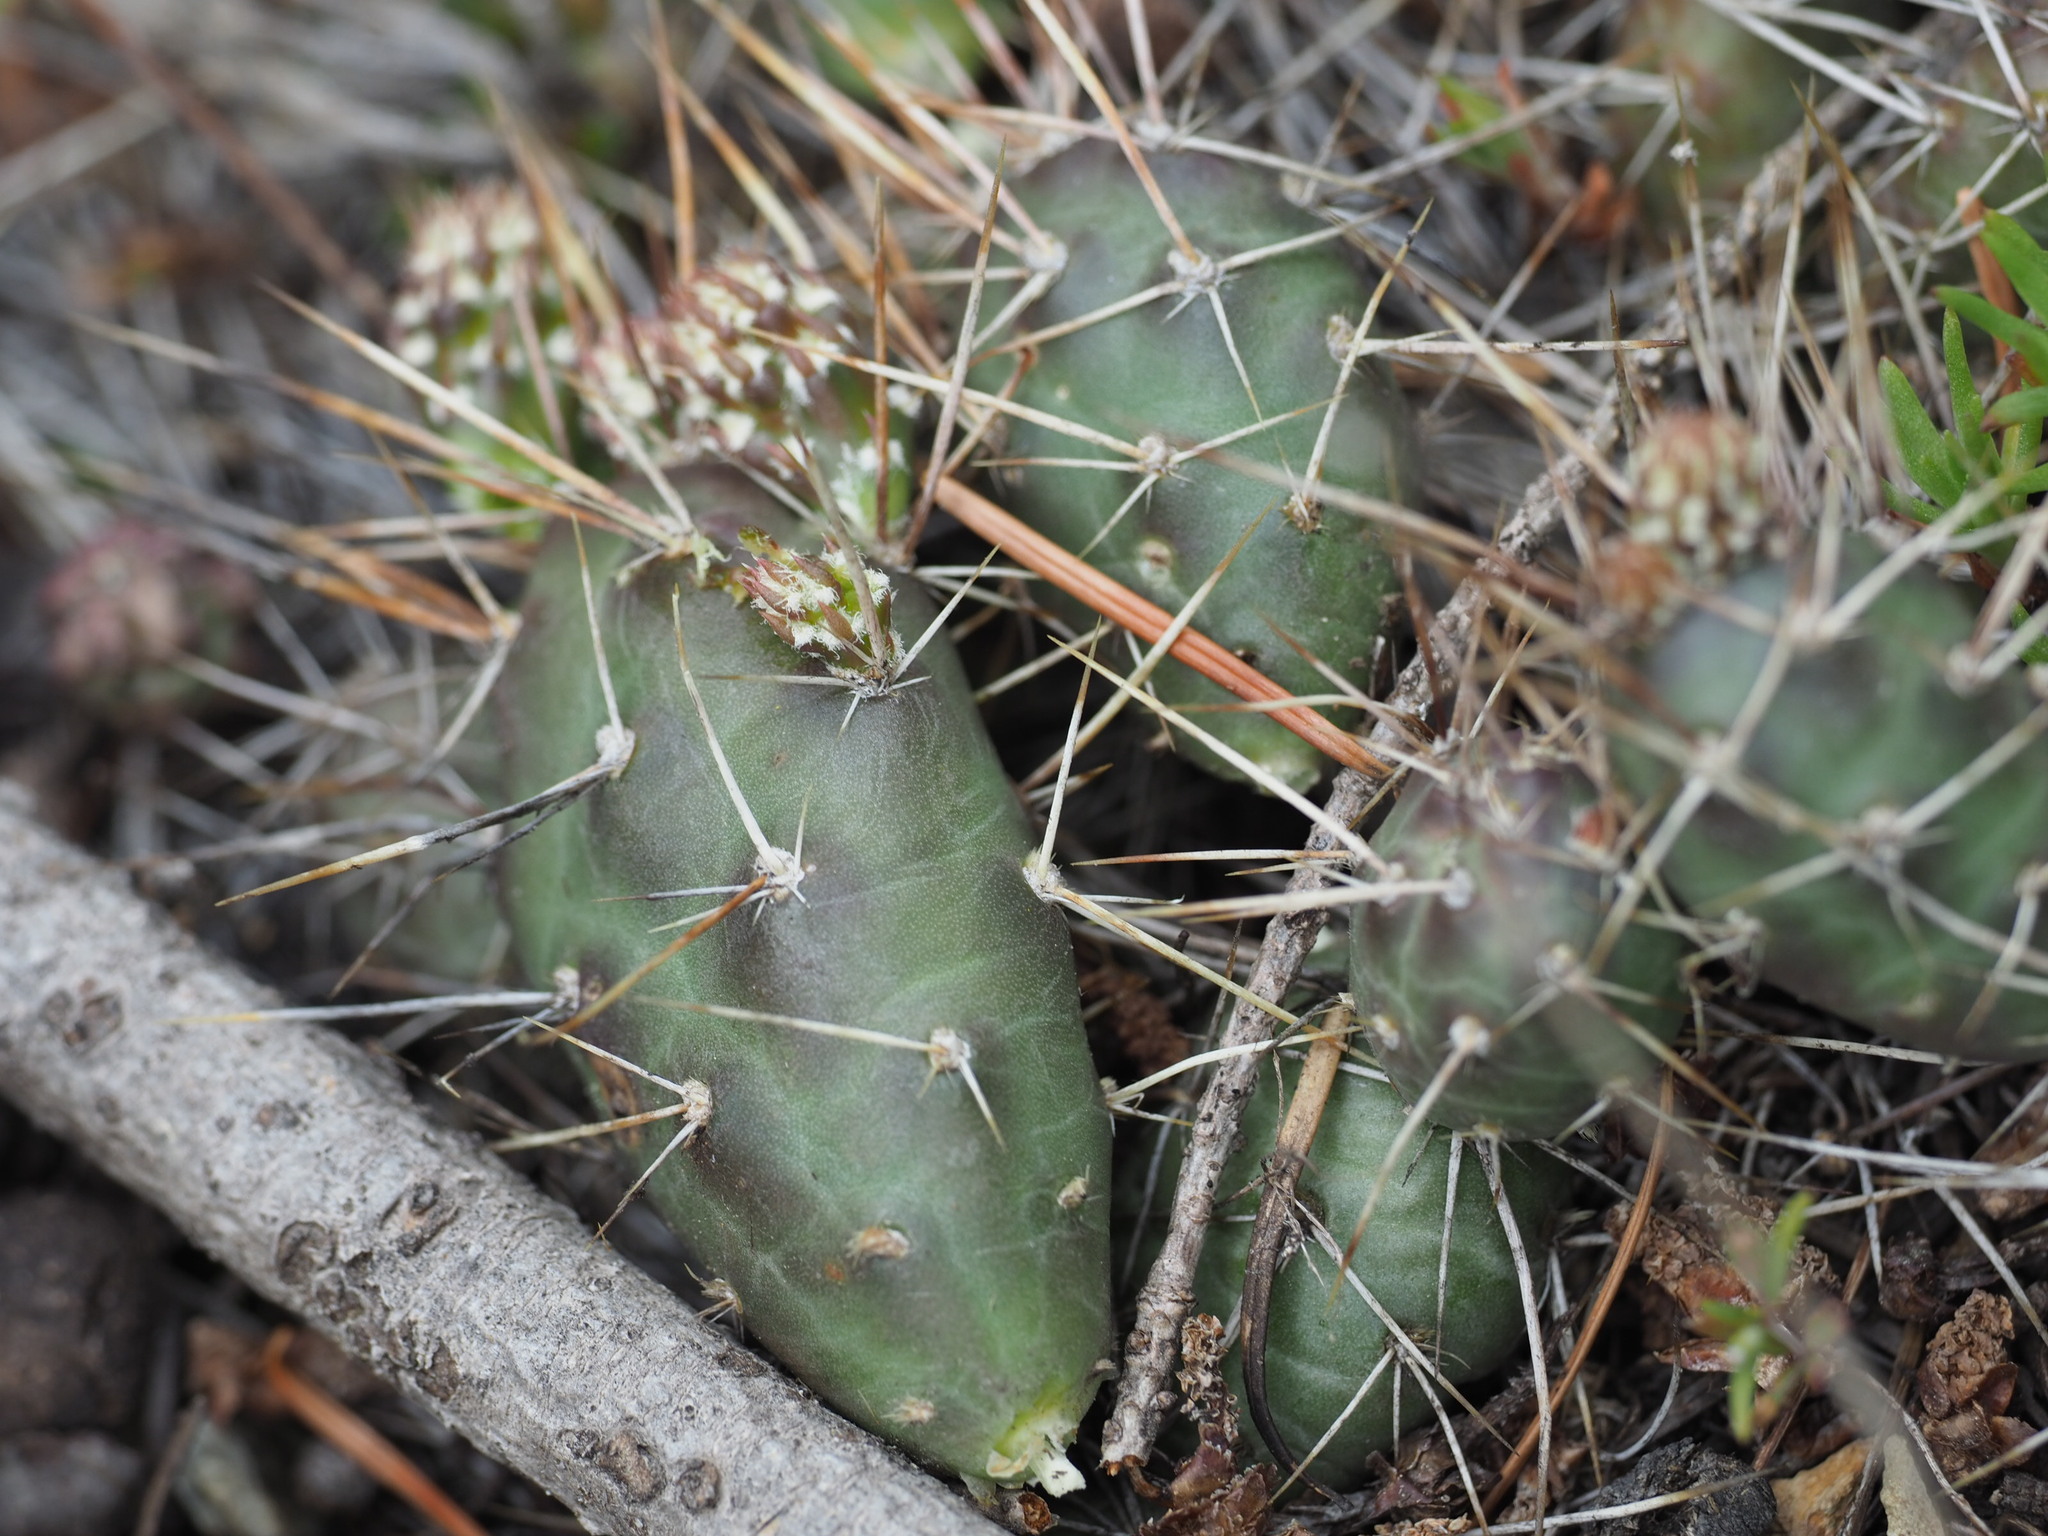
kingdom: Plantae
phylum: Tracheophyta
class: Magnoliopsida
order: Caryophyllales
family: Cactaceae
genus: Opuntia
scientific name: Opuntia fragilis
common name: Brittle cactus
